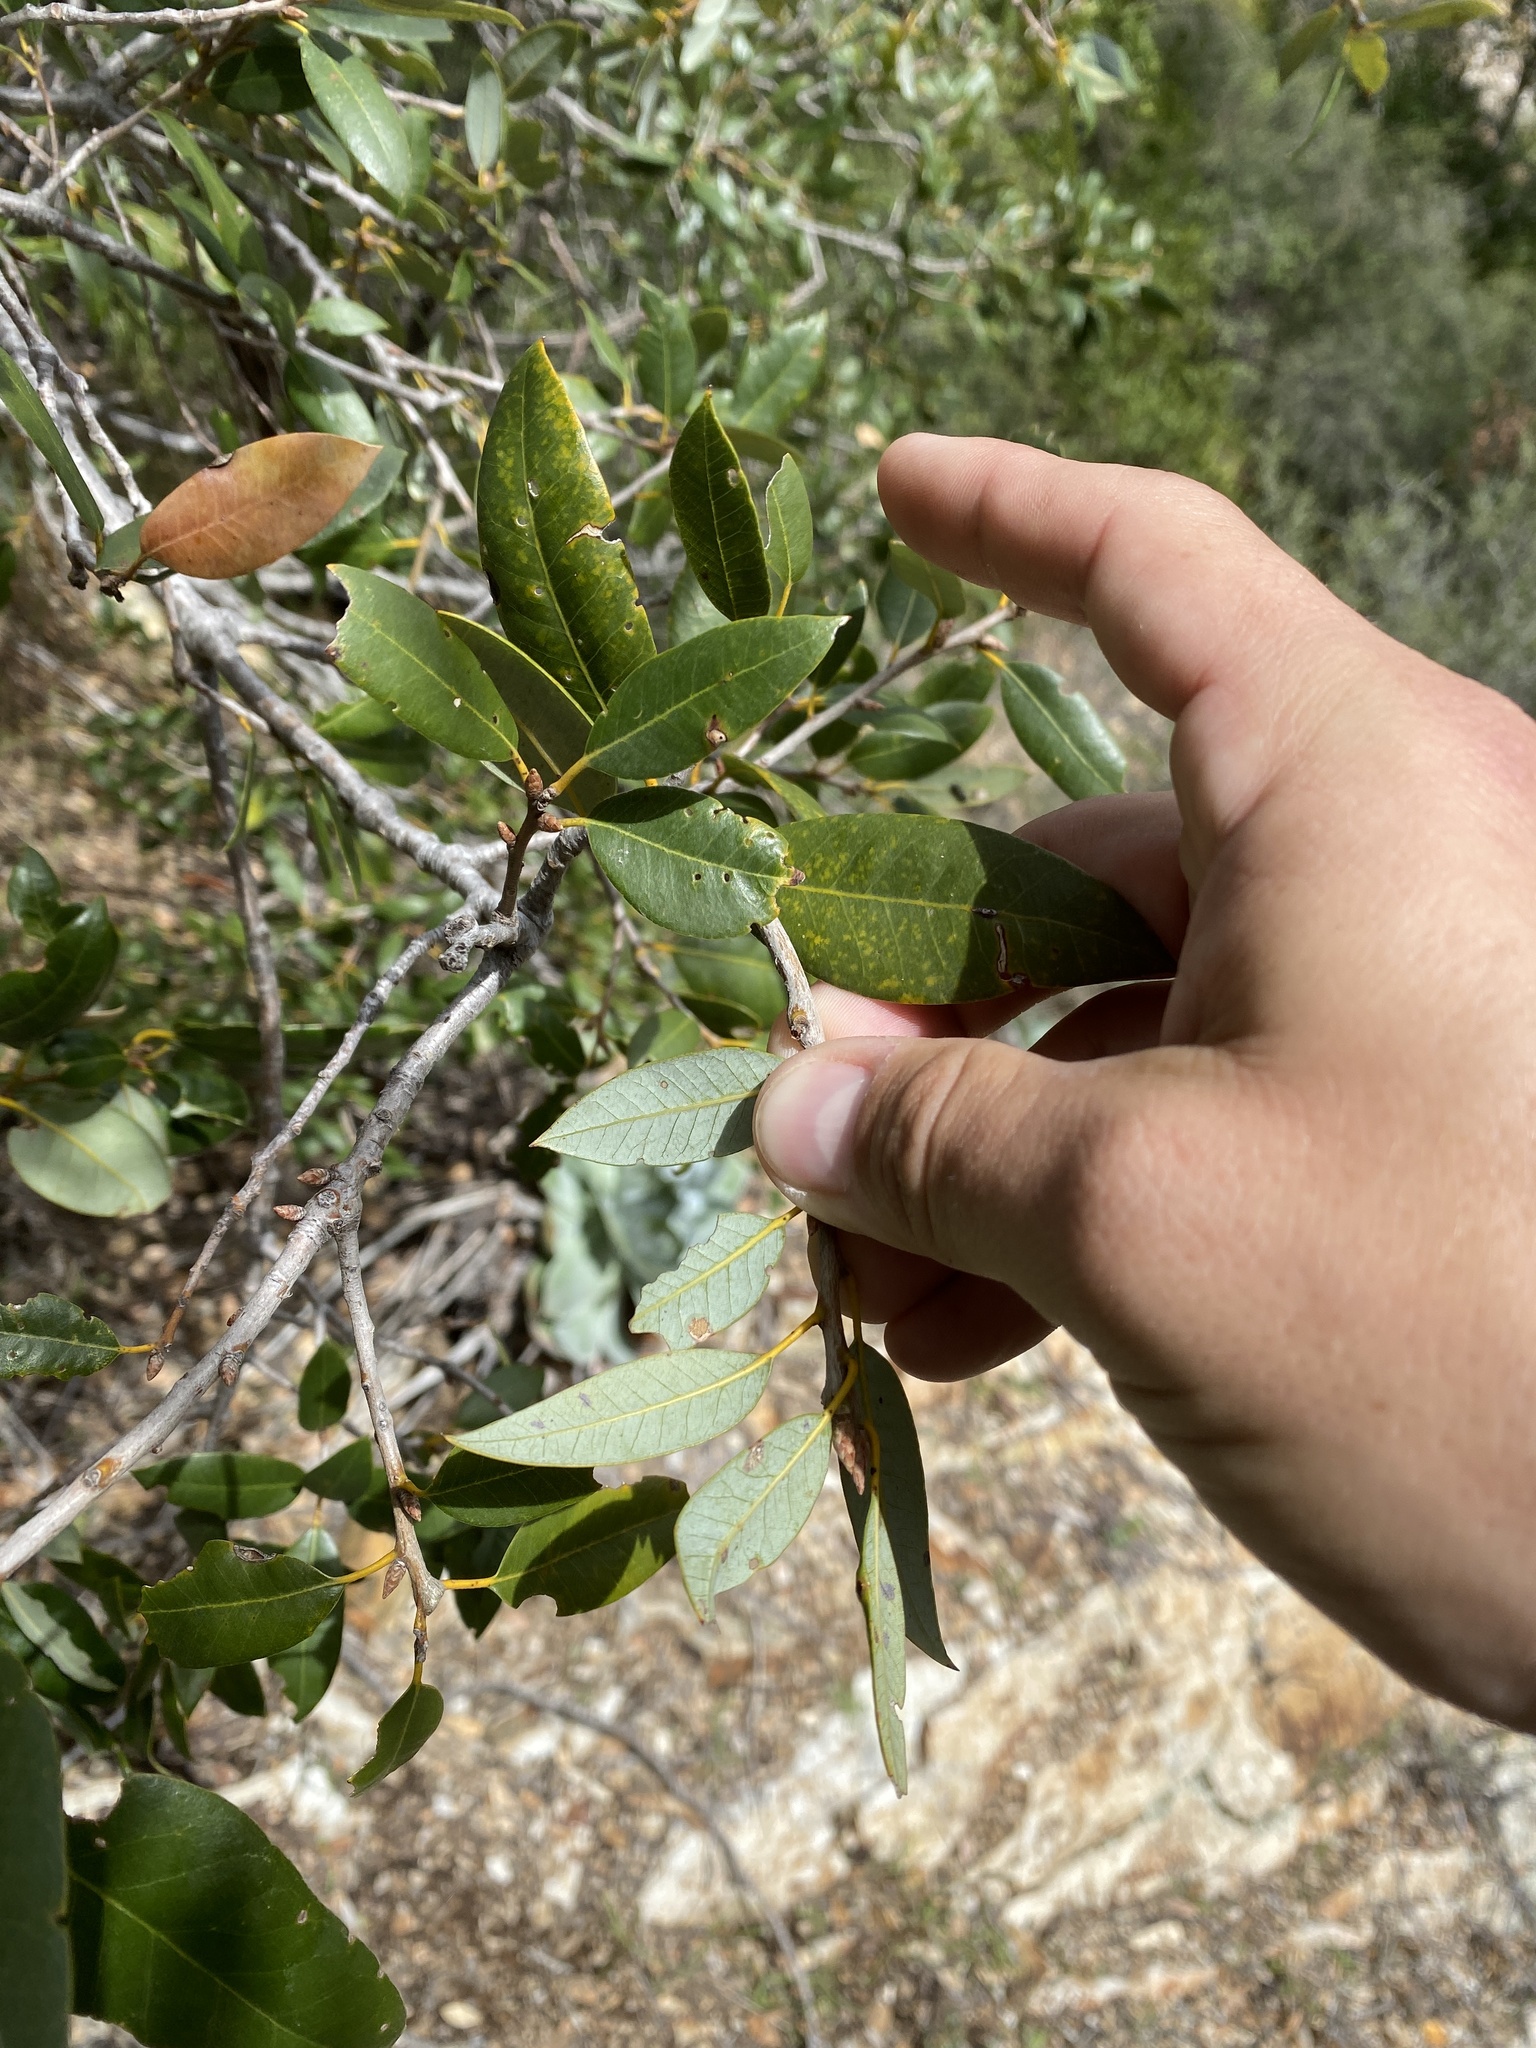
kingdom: Plantae
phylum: Tracheophyta
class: Magnoliopsida
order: Fagales
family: Fagaceae
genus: Quercus
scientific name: Quercus chrysolepis
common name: Canyon live oak
